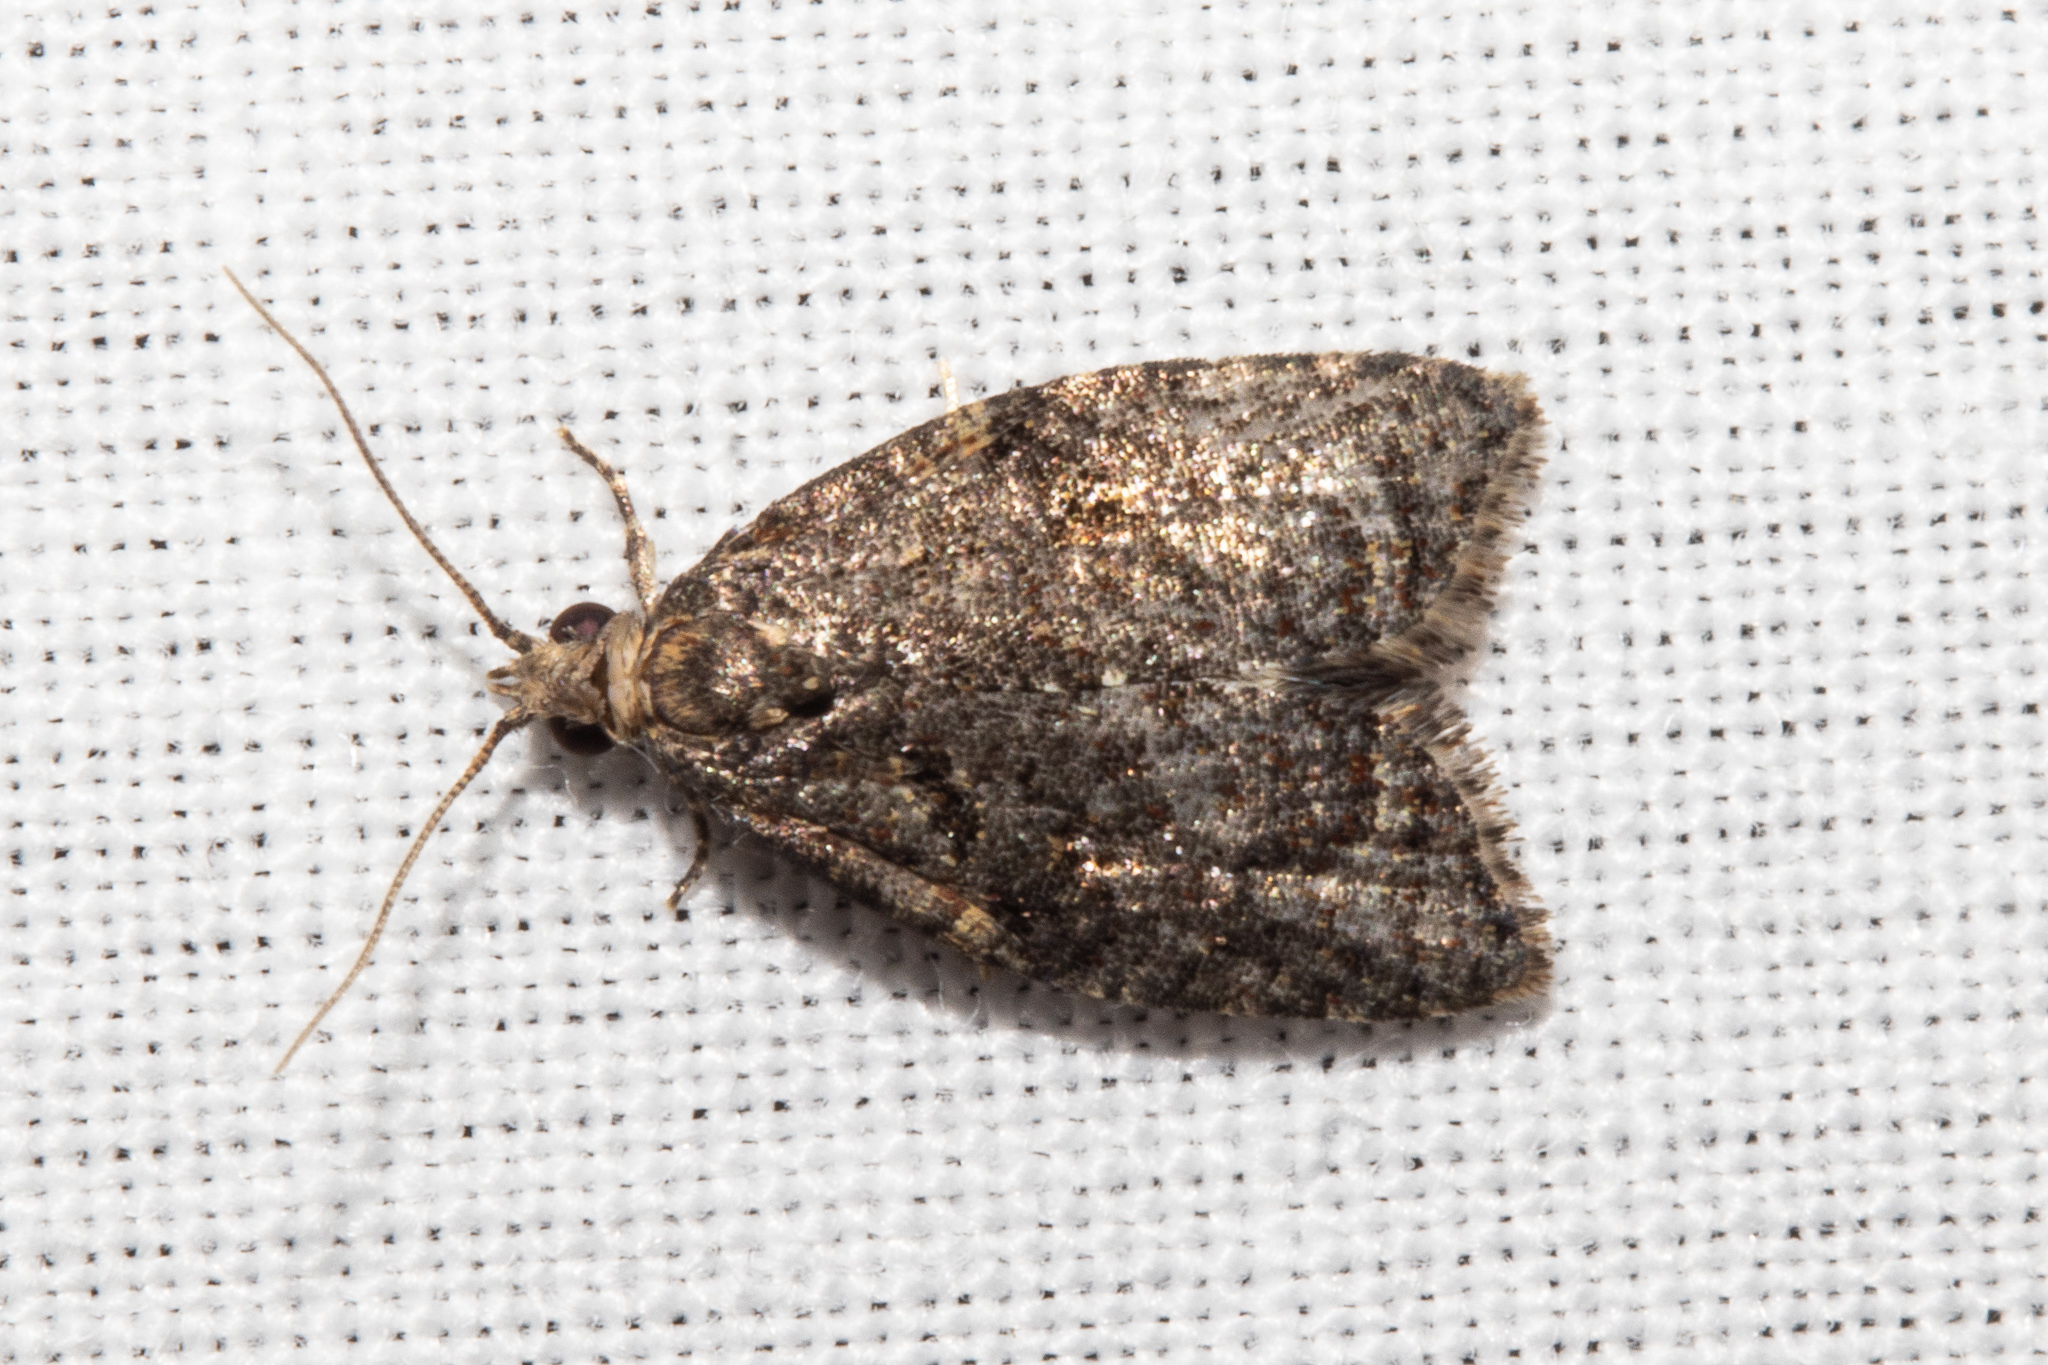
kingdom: Animalia
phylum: Arthropoda
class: Insecta
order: Lepidoptera
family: Tortricidae
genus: Capua
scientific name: Capua intractana
